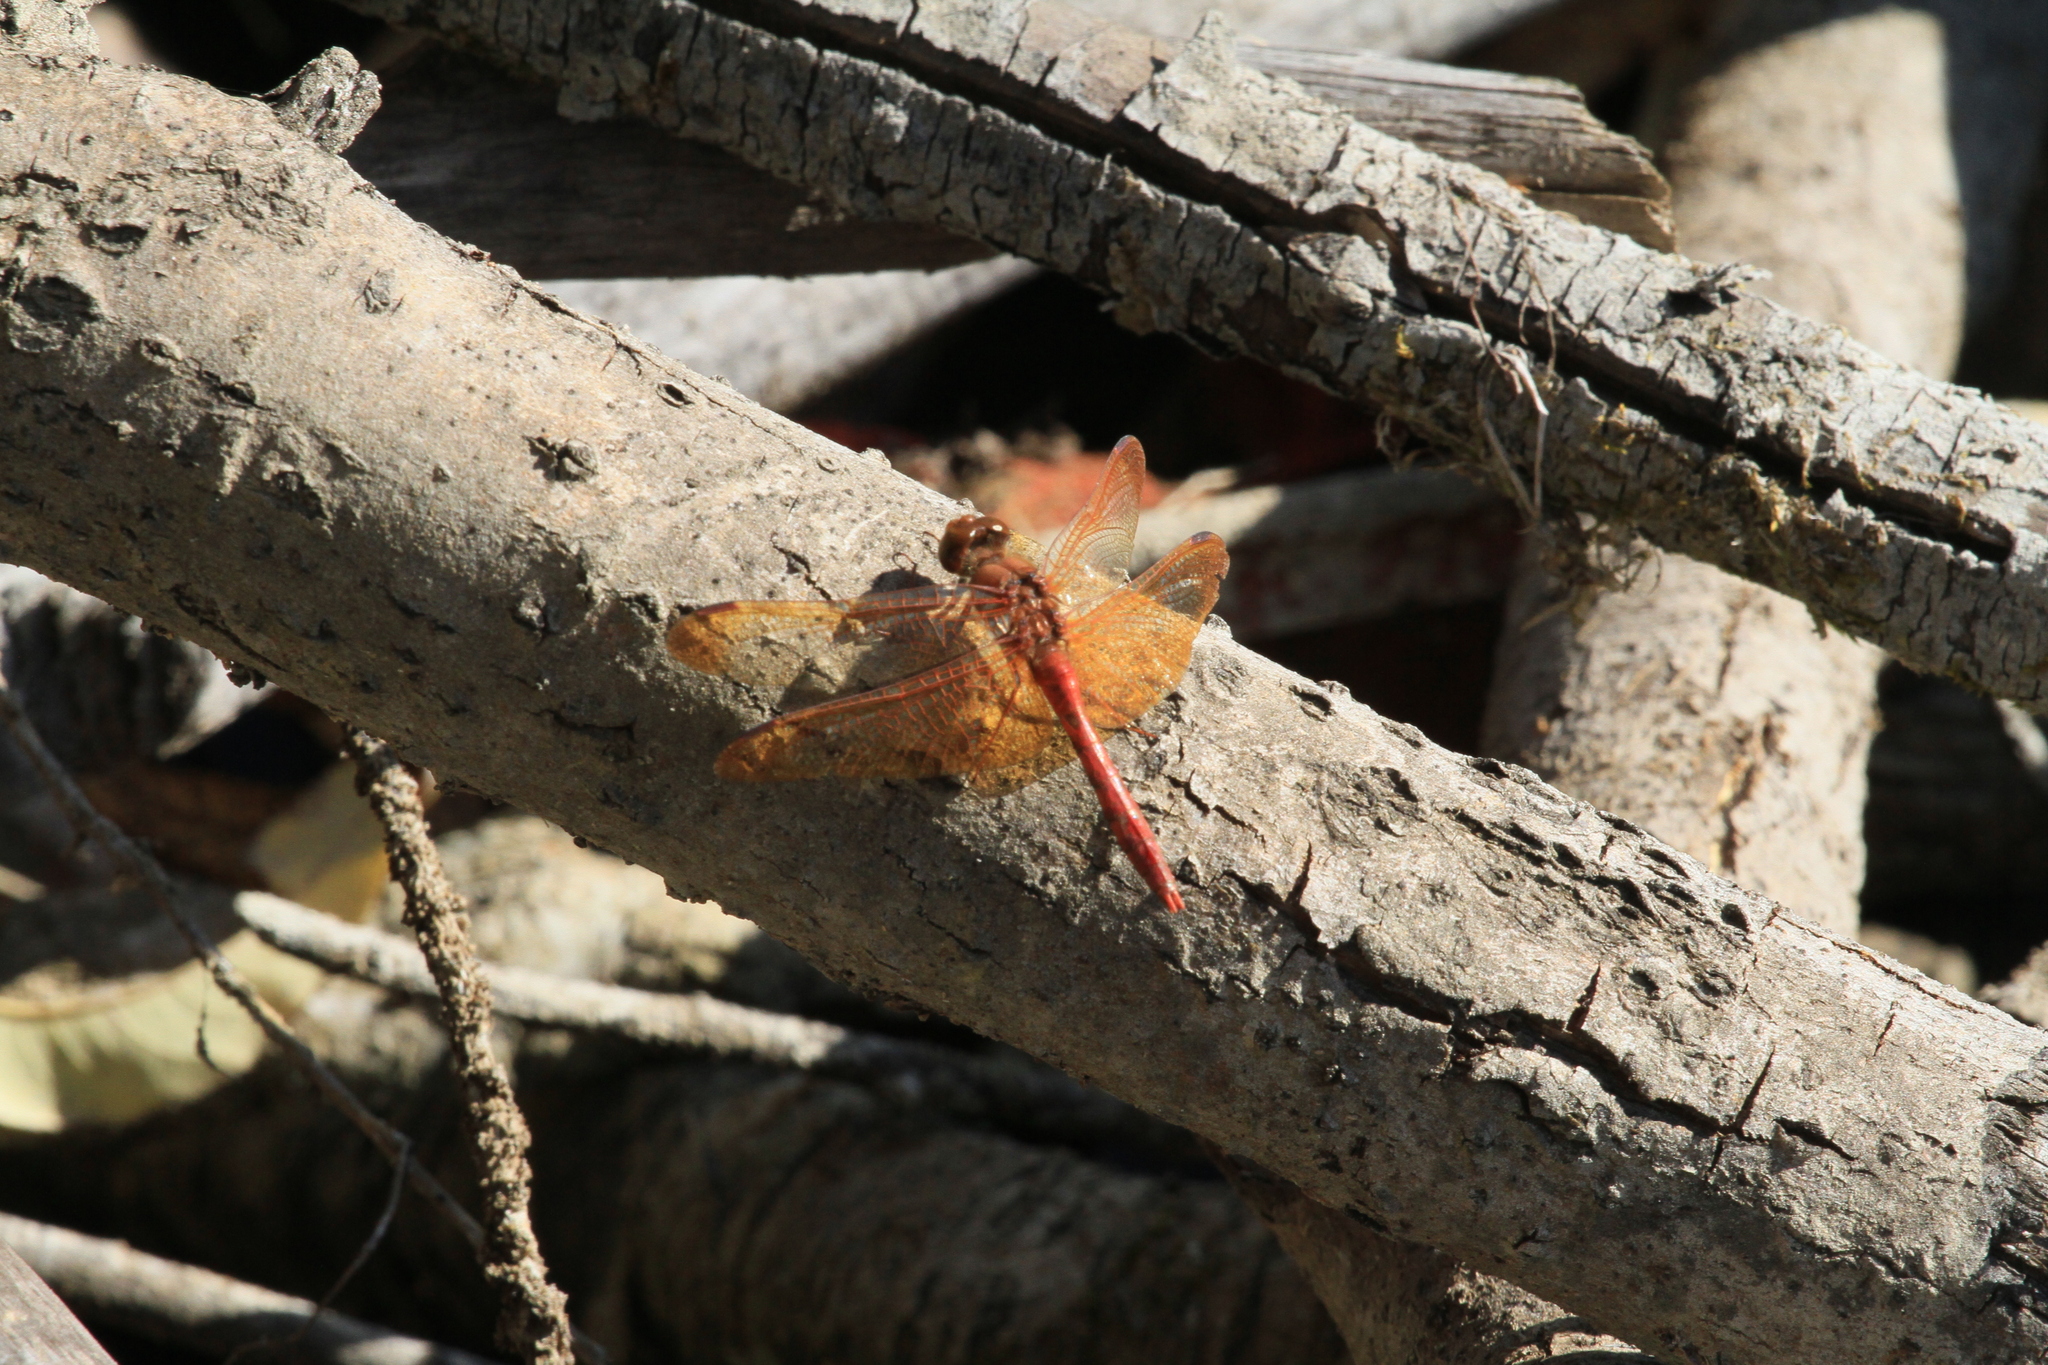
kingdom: Animalia
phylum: Arthropoda
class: Insecta
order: Odonata
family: Libellulidae
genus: Sympetrum
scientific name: Sympetrum croceolum
